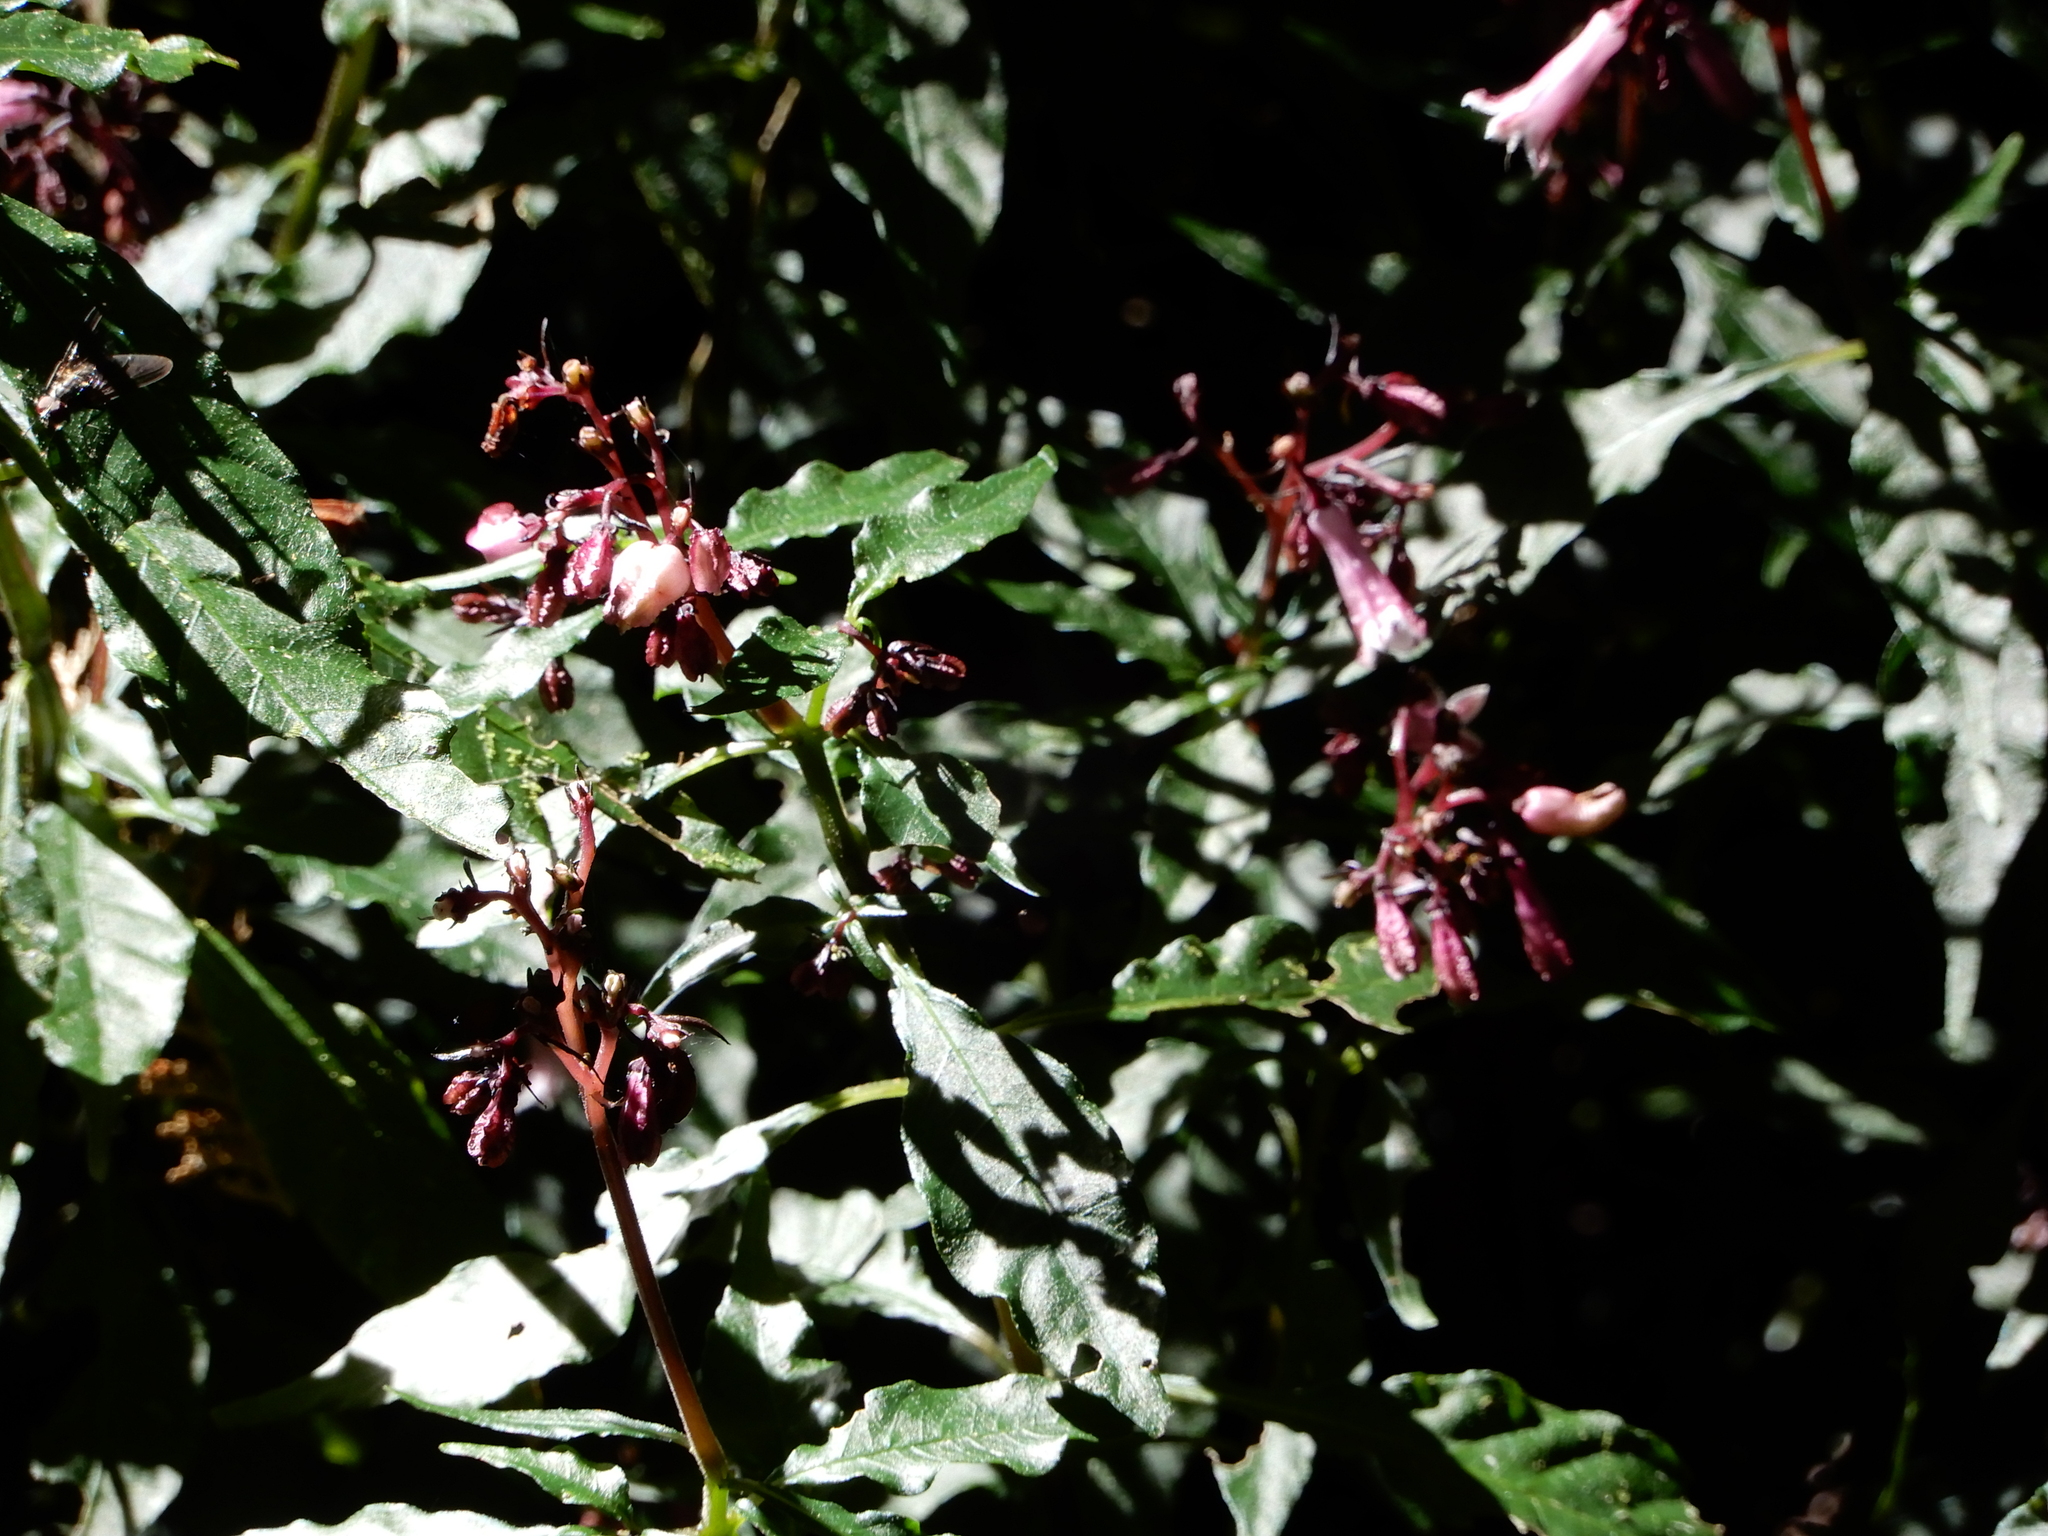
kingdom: Plantae
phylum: Tracheophyta
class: Magnoliopsida
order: Gentianales
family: Rubiaceae
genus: Ophiorrhiza
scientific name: Ophiorrhiza japonica
